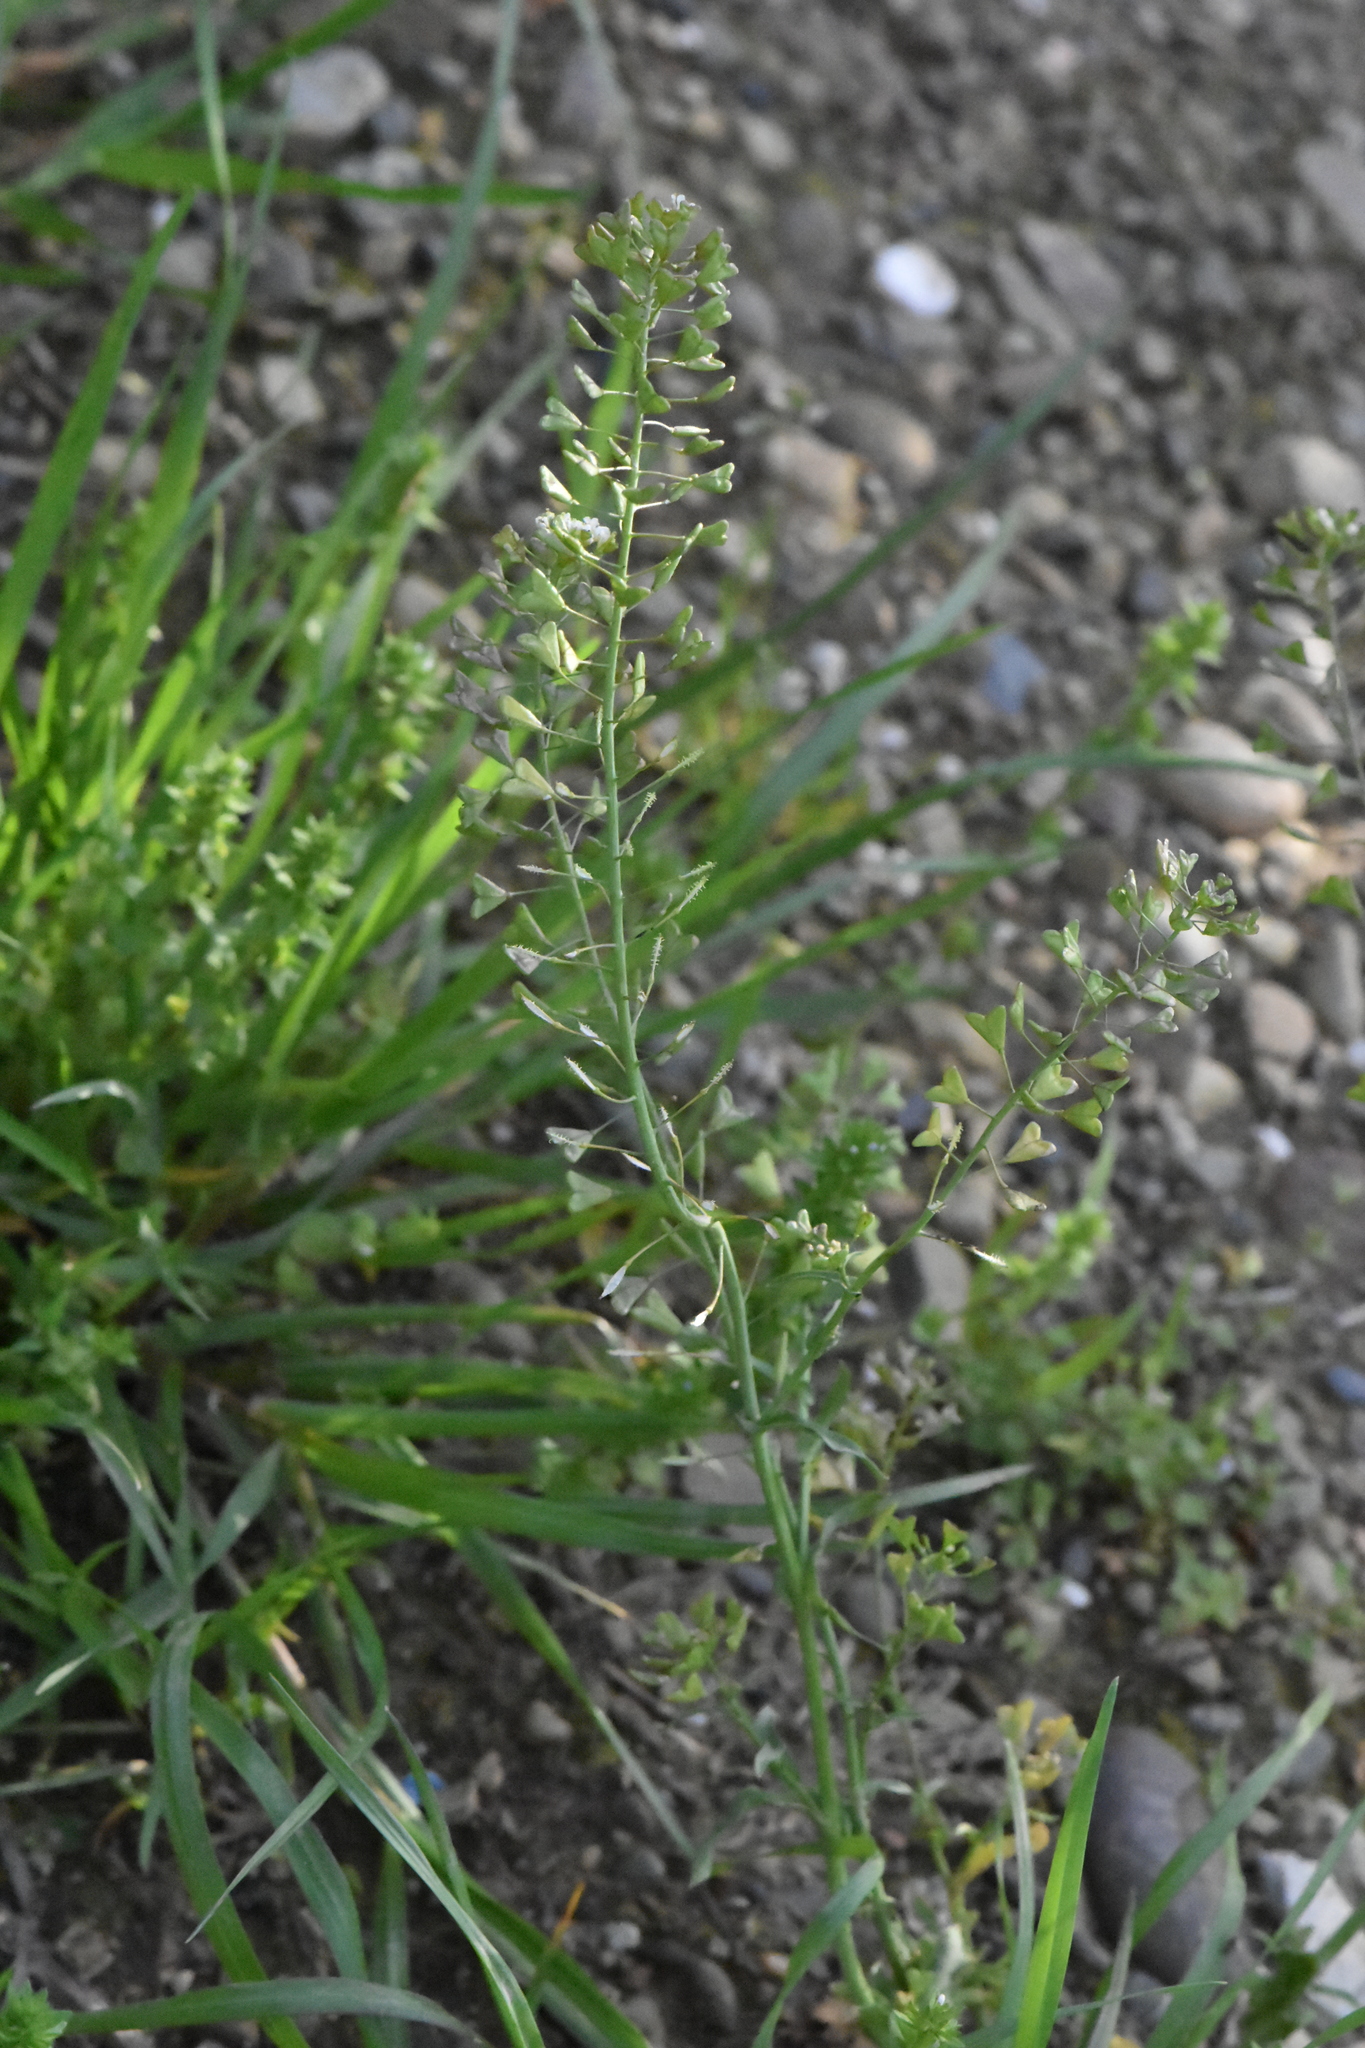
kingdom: Plantae
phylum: Tracheophyta
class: Magnoliopsida
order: Brassicales
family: Brassicaceae
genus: Capsella
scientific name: Capsella bursa-pastoris
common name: Shepherd's purse
